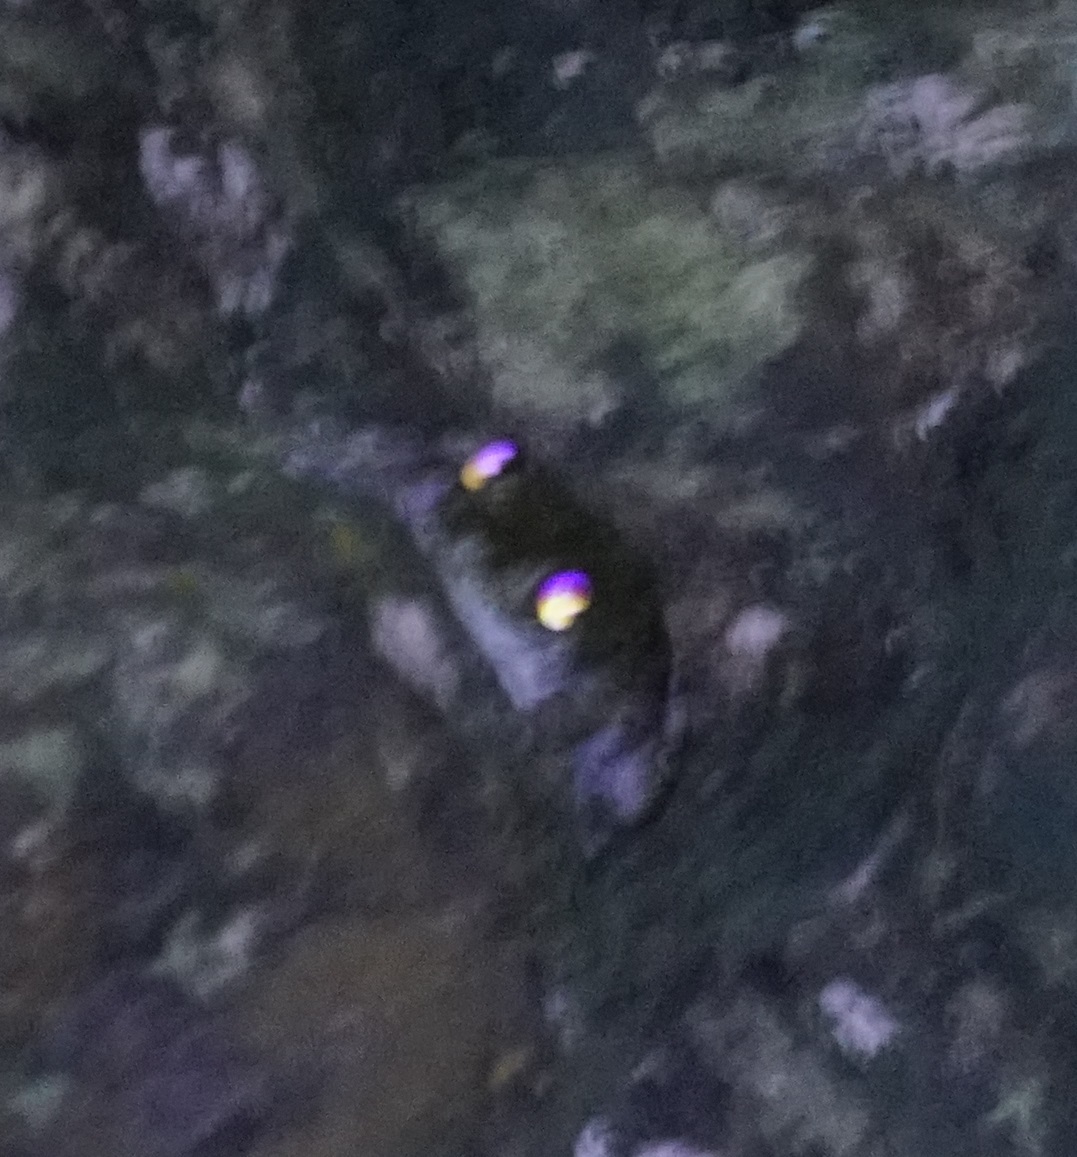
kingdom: Animalia
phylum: Chordata
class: Amphibia
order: Anura
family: Pelodryadidae
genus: Ranoidea
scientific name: Ranoidea nannotis
